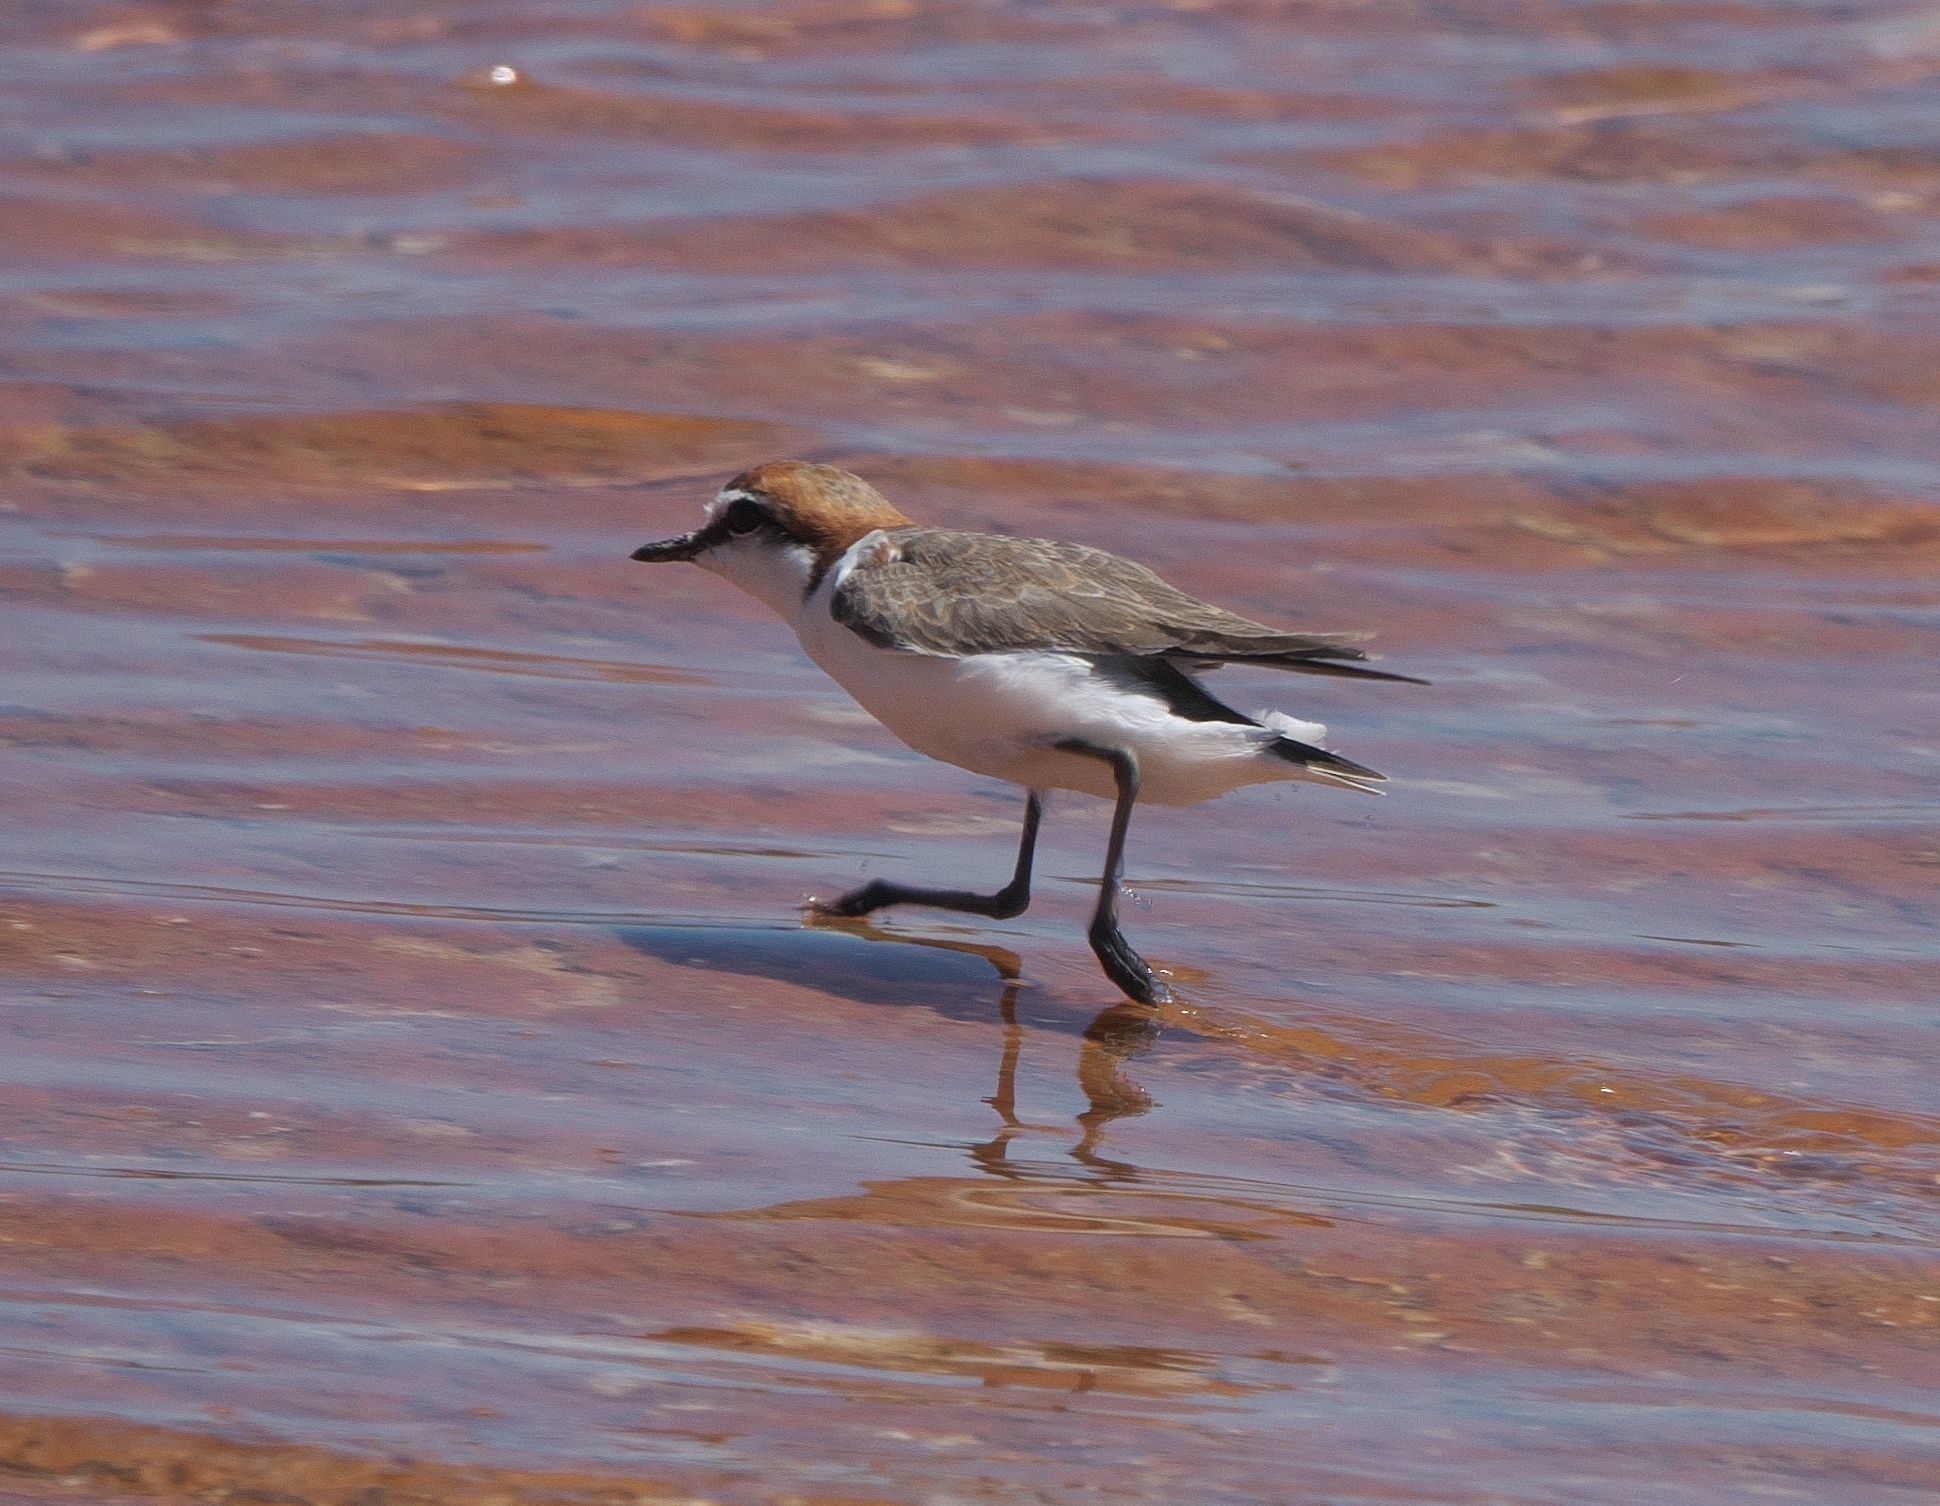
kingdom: Animalia
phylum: Chordata
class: Aves
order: Charadriiformes
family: Charadriidae
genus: Anarhynchus
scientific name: Anarhynchus
